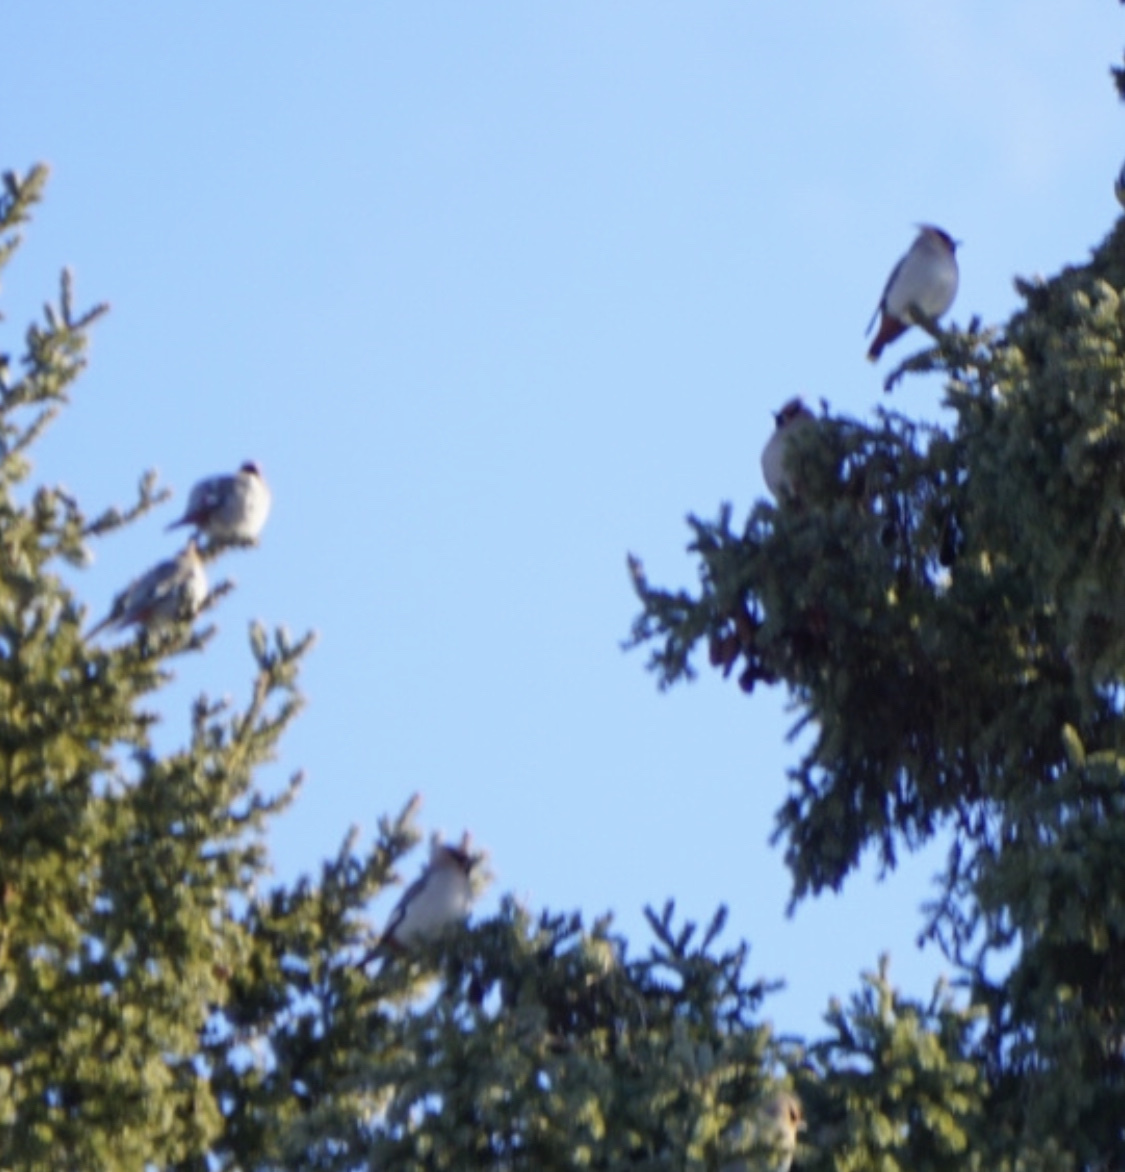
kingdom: Animalia
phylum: Chordata
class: Aves
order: Passeriformes
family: Bombycillidae
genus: Bombycilla
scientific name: Bombycilla garrulus
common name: Bohemian waxwing
